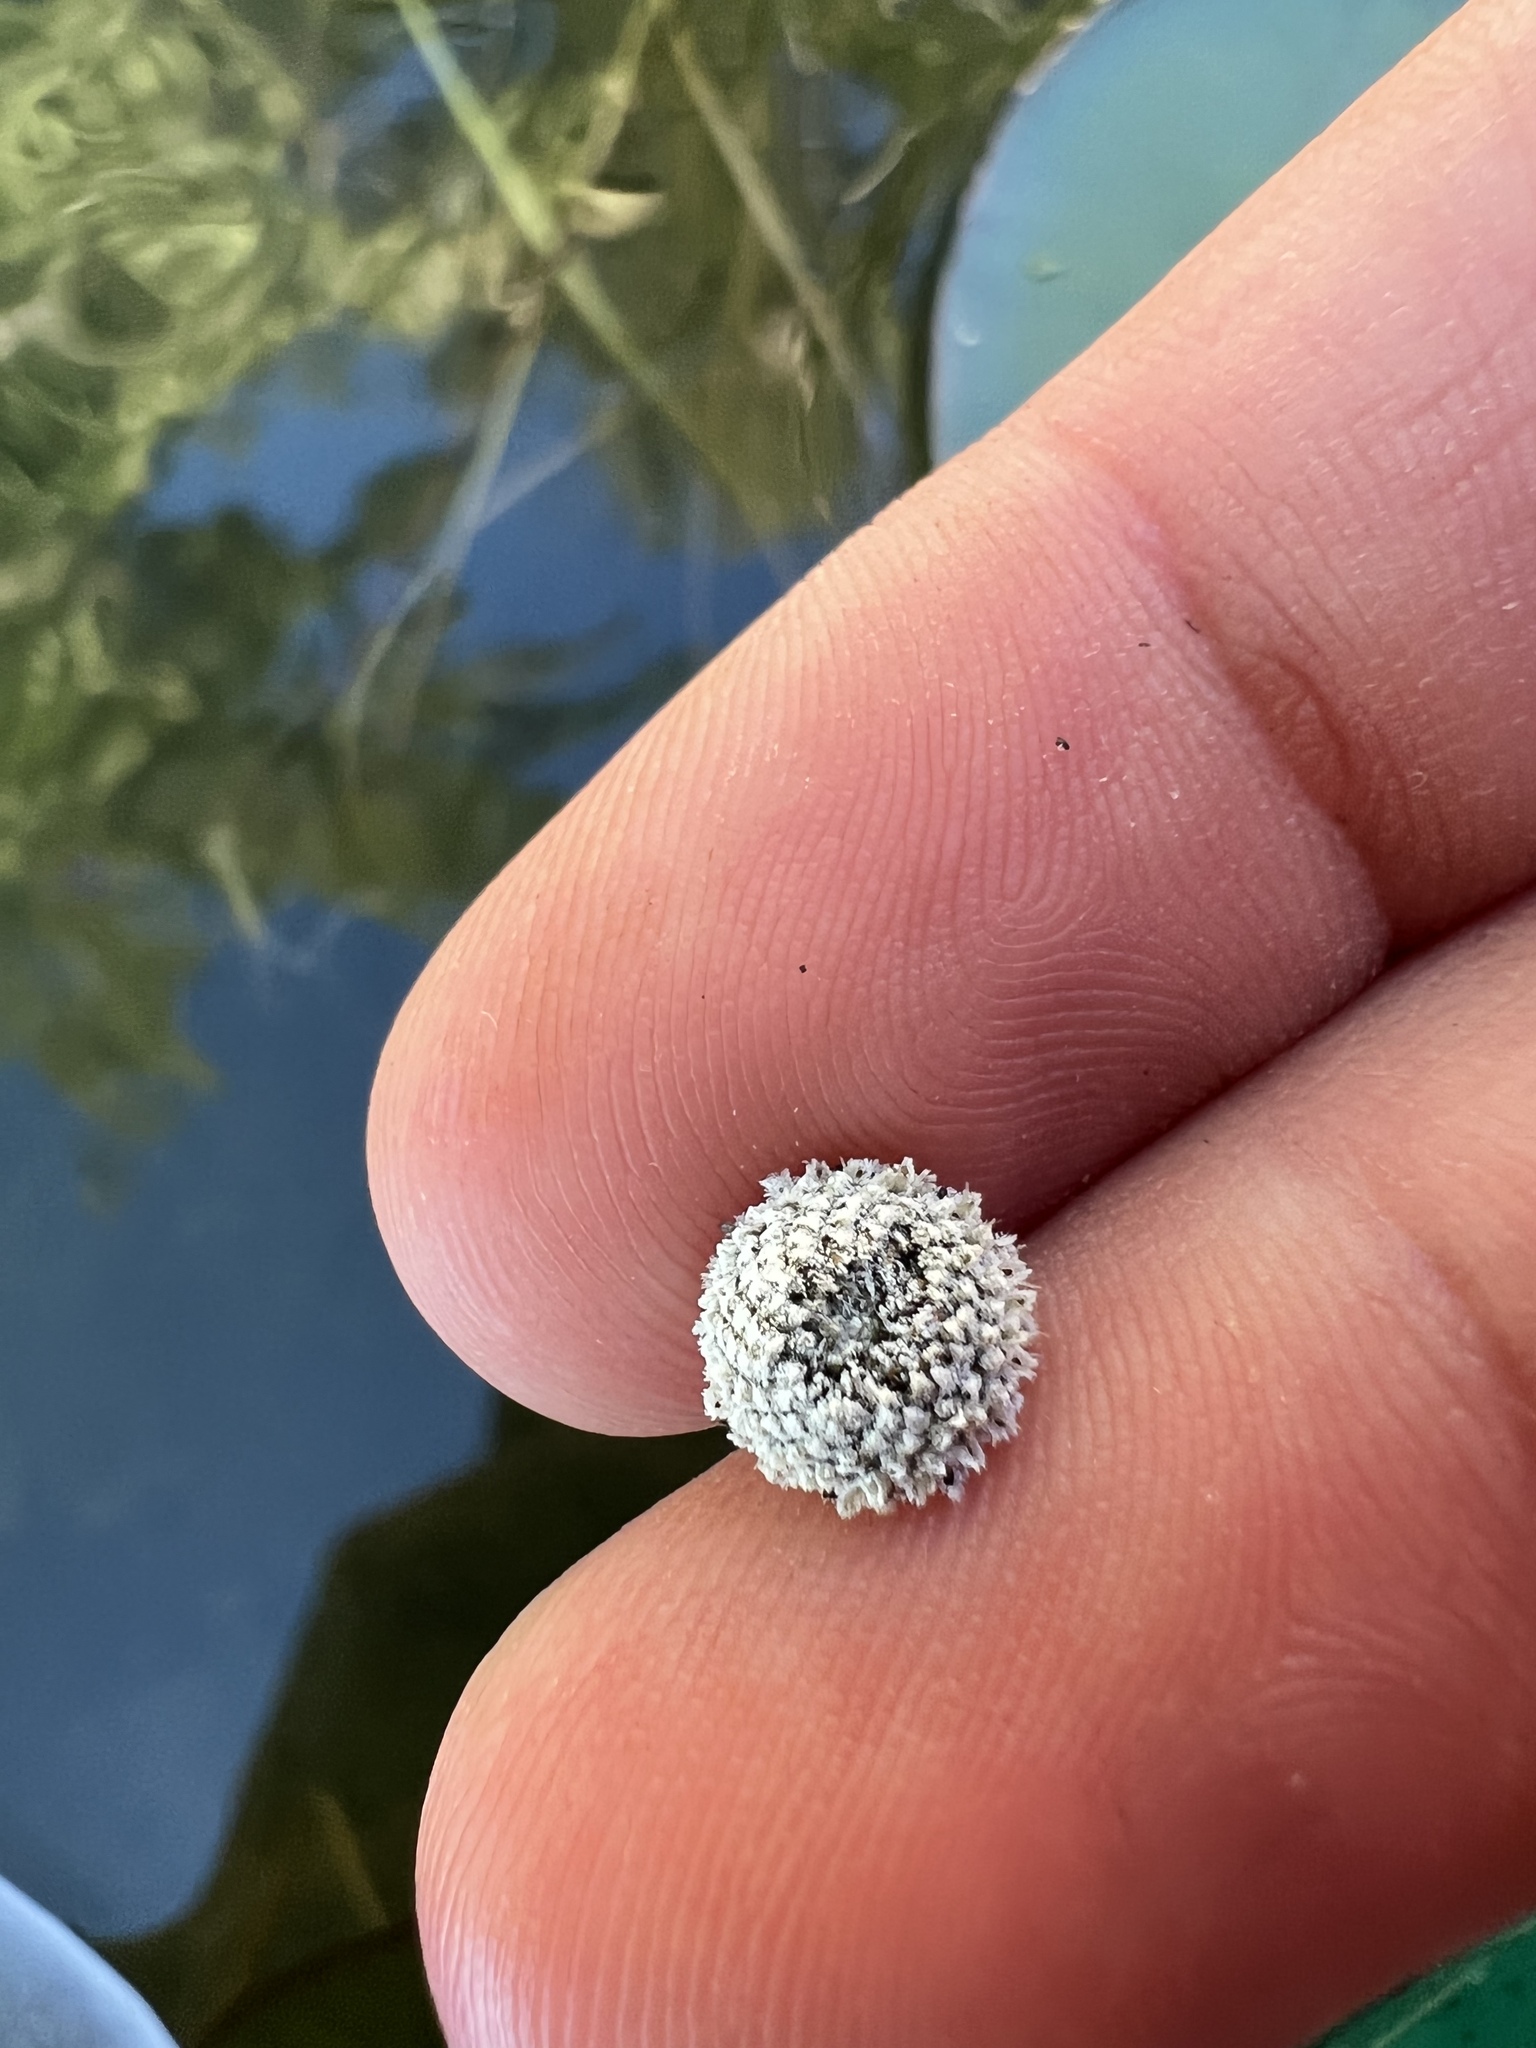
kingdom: Plantae
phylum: Tracheophyta
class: Liliopsida
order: Poales
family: Eriocaulaceae
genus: Eriocaulon
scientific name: Eriocaulon aquaticum
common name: Pipewort
